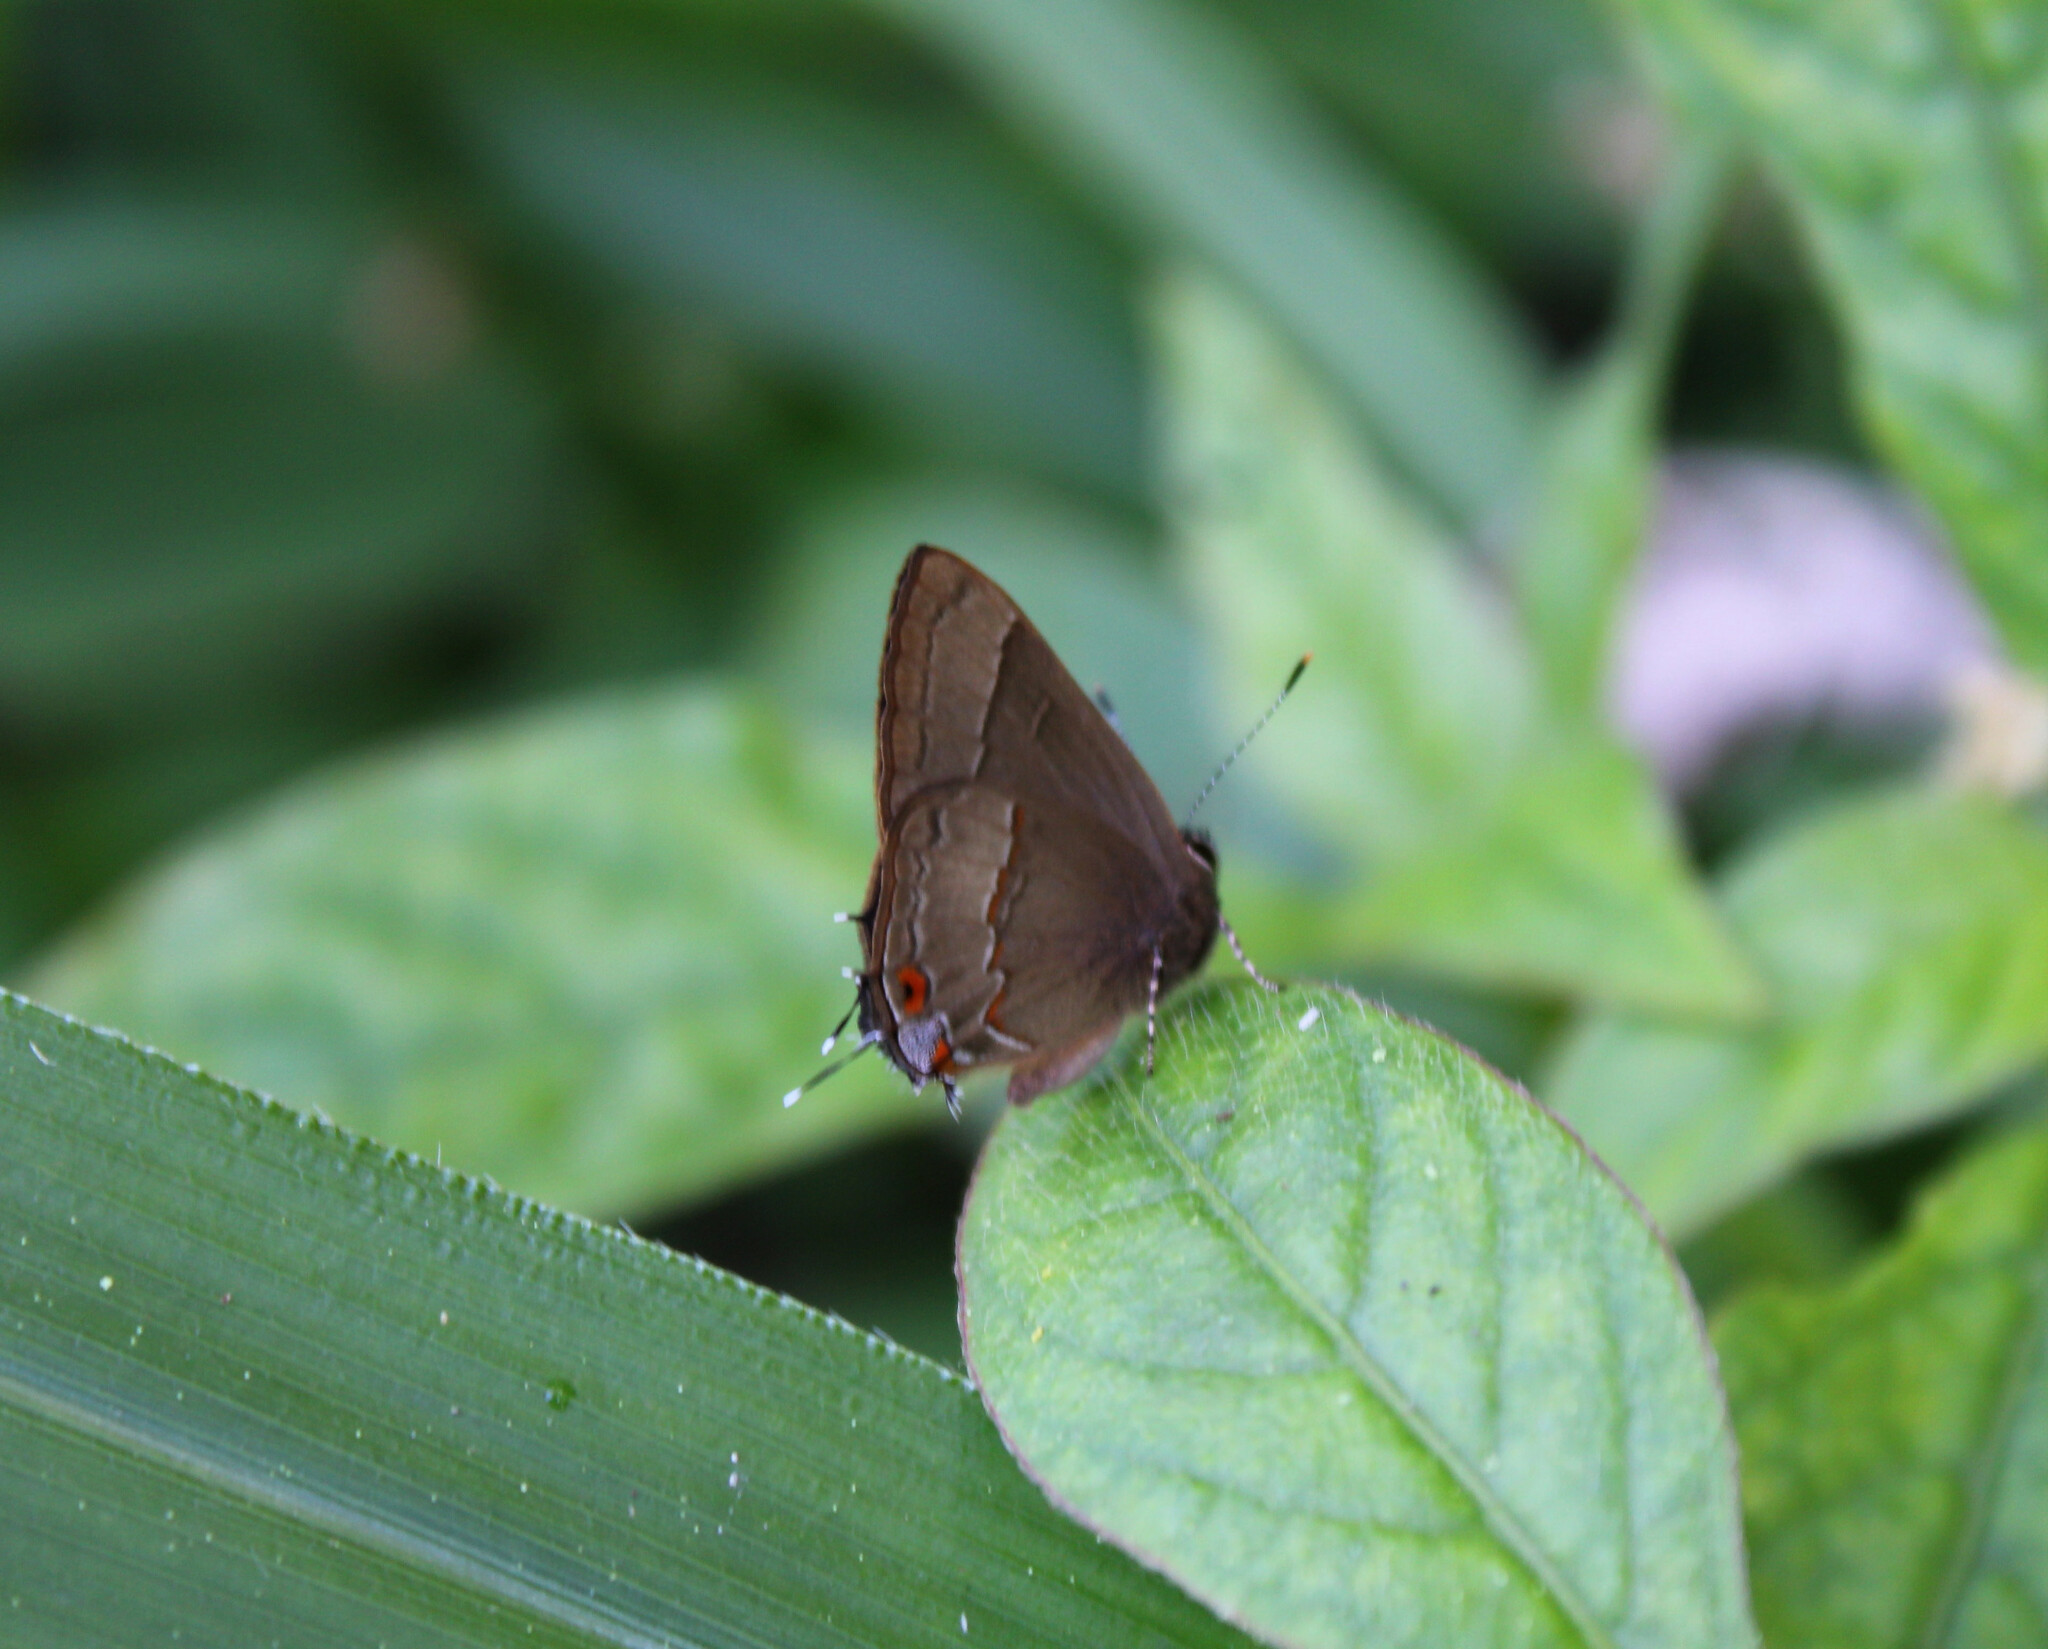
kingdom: Animalia
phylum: Arthropoda
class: Insecta
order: Lepidoptera
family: Lycaenidae
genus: Arzecla
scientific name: Arzecla tucumanensis
